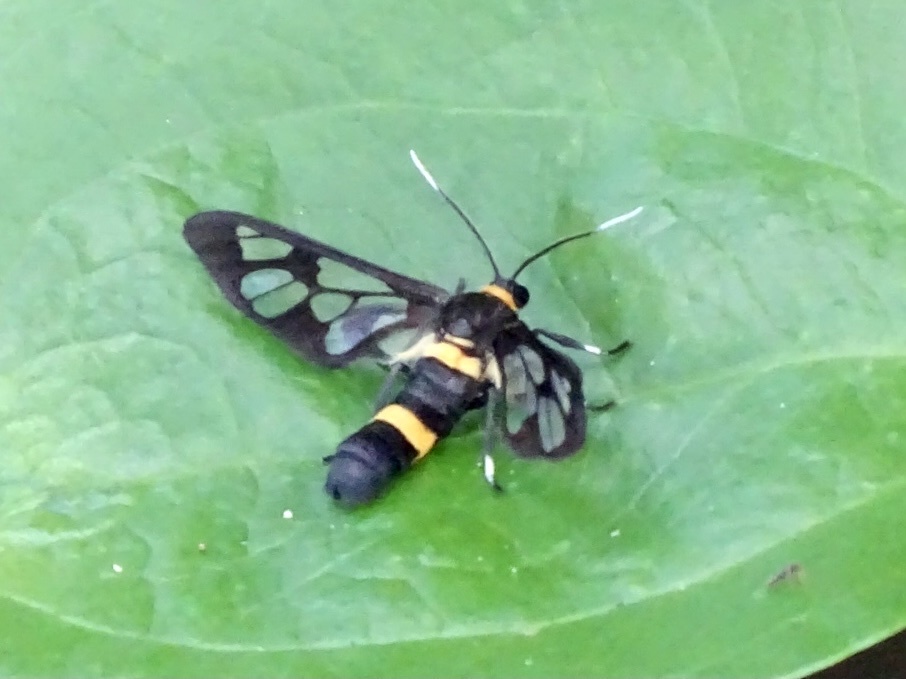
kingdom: Animalia
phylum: Arthropoda
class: Insecta
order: Lepidoptera
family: Erebidae
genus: Syntomoides
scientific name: Syntomoides imaon
